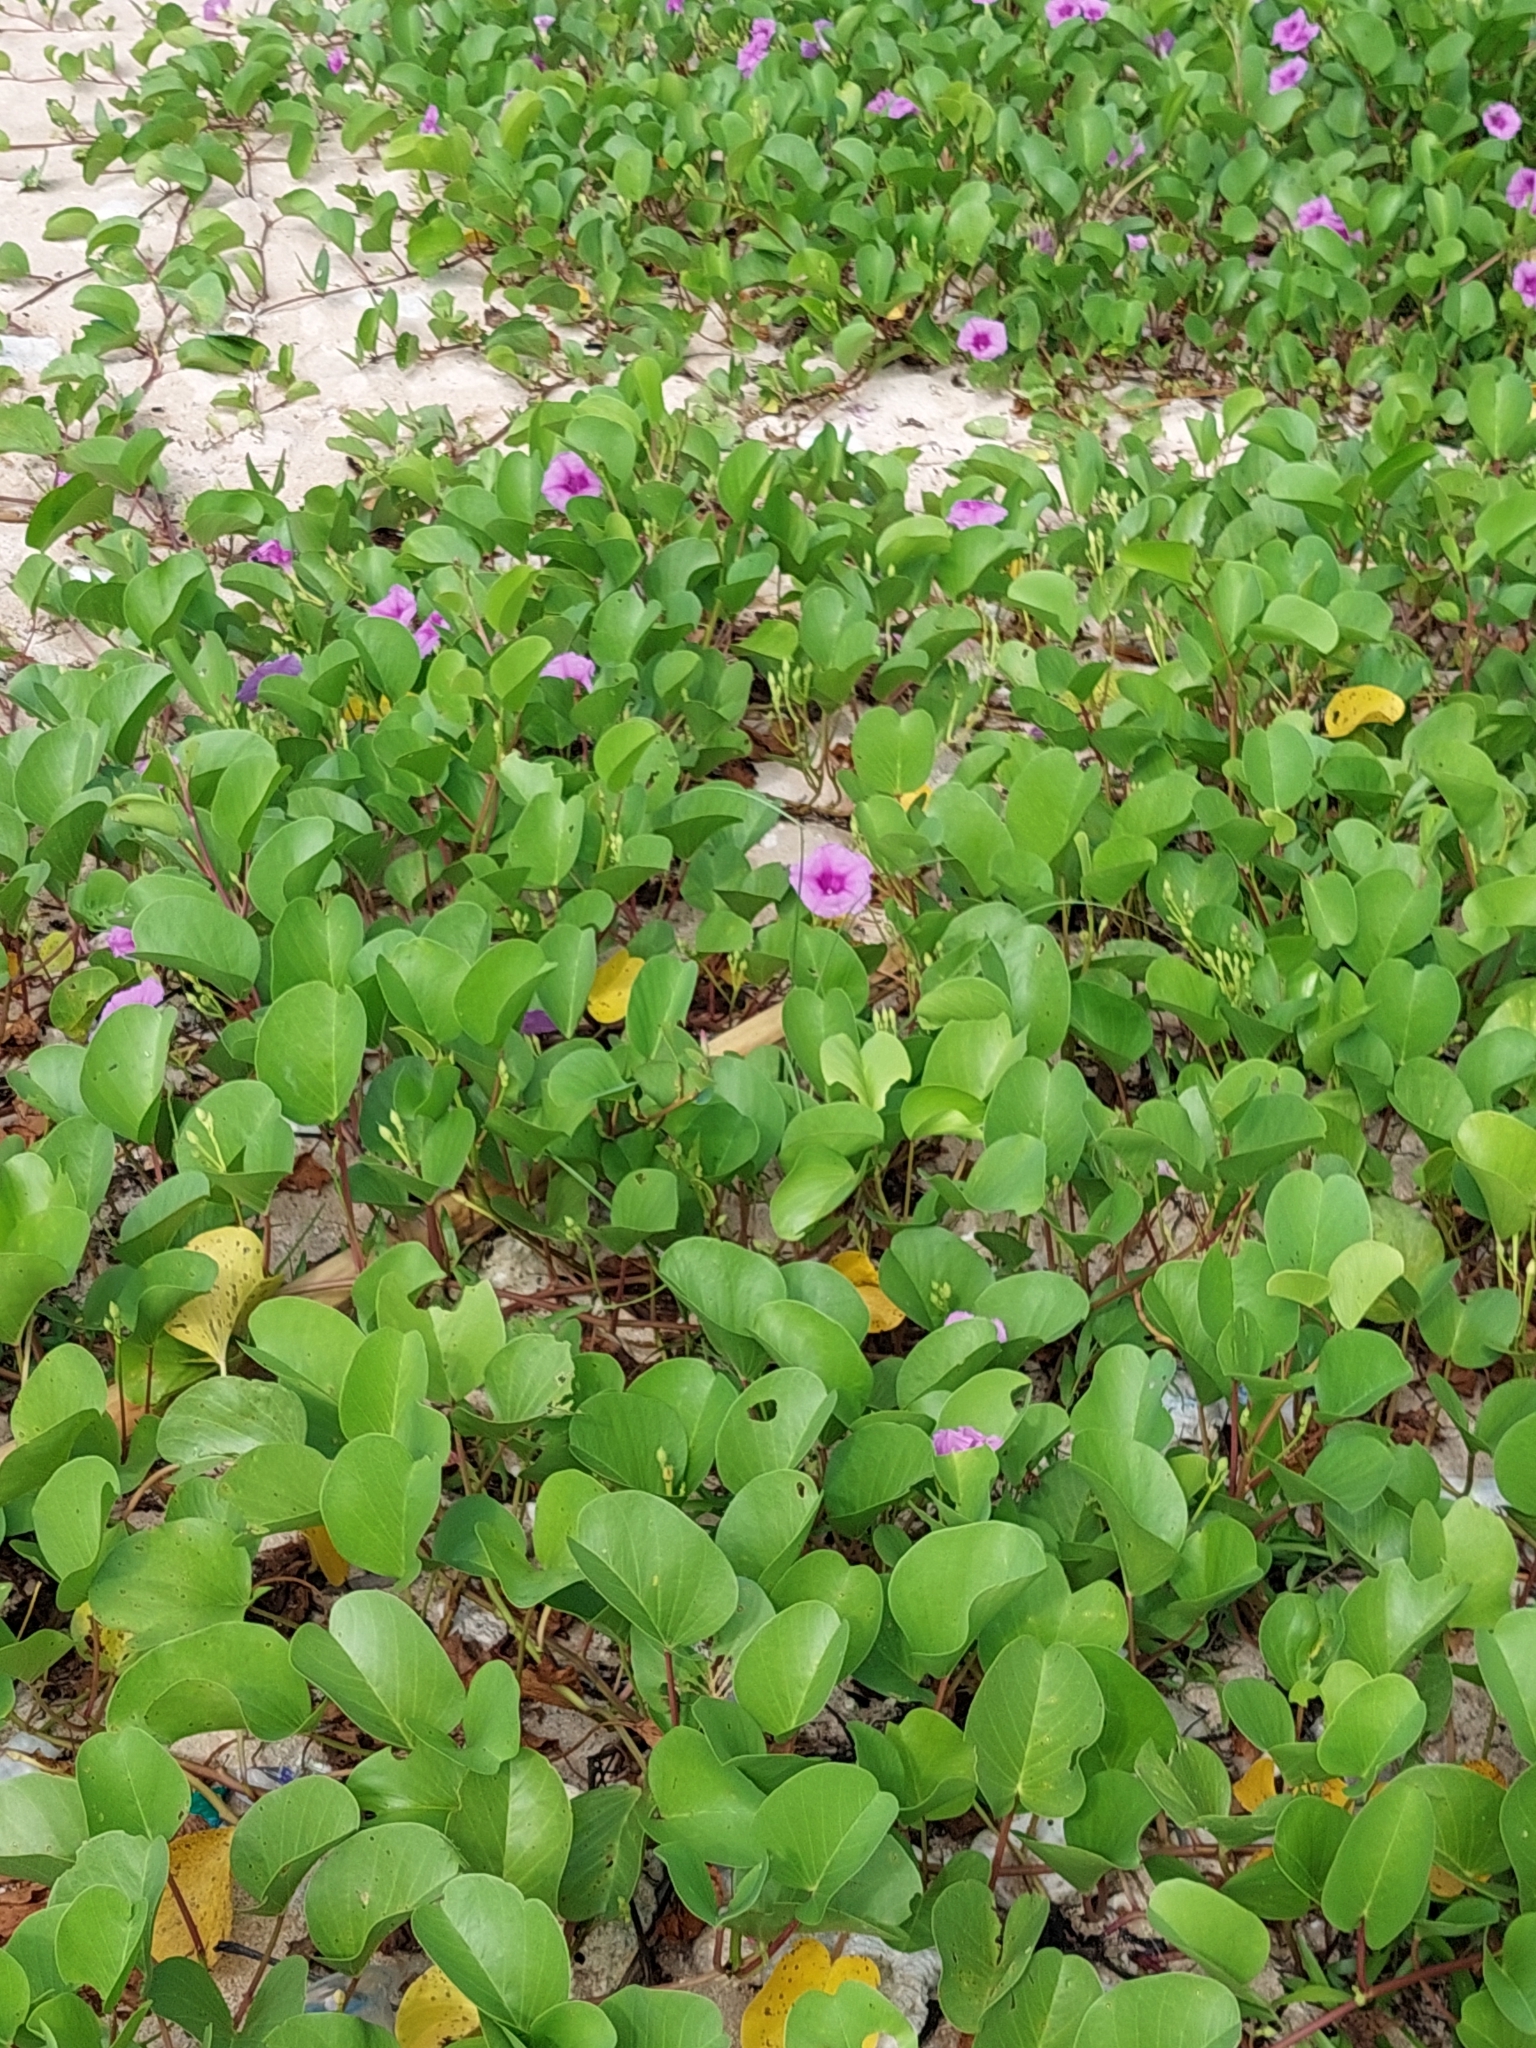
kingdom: Plantae
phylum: Tracheophyta
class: Magnoliopsida
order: Solanales
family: Convolvulaceae
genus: Ipomoea
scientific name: Ipomoea pes-caprae
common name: Beach morning glory
